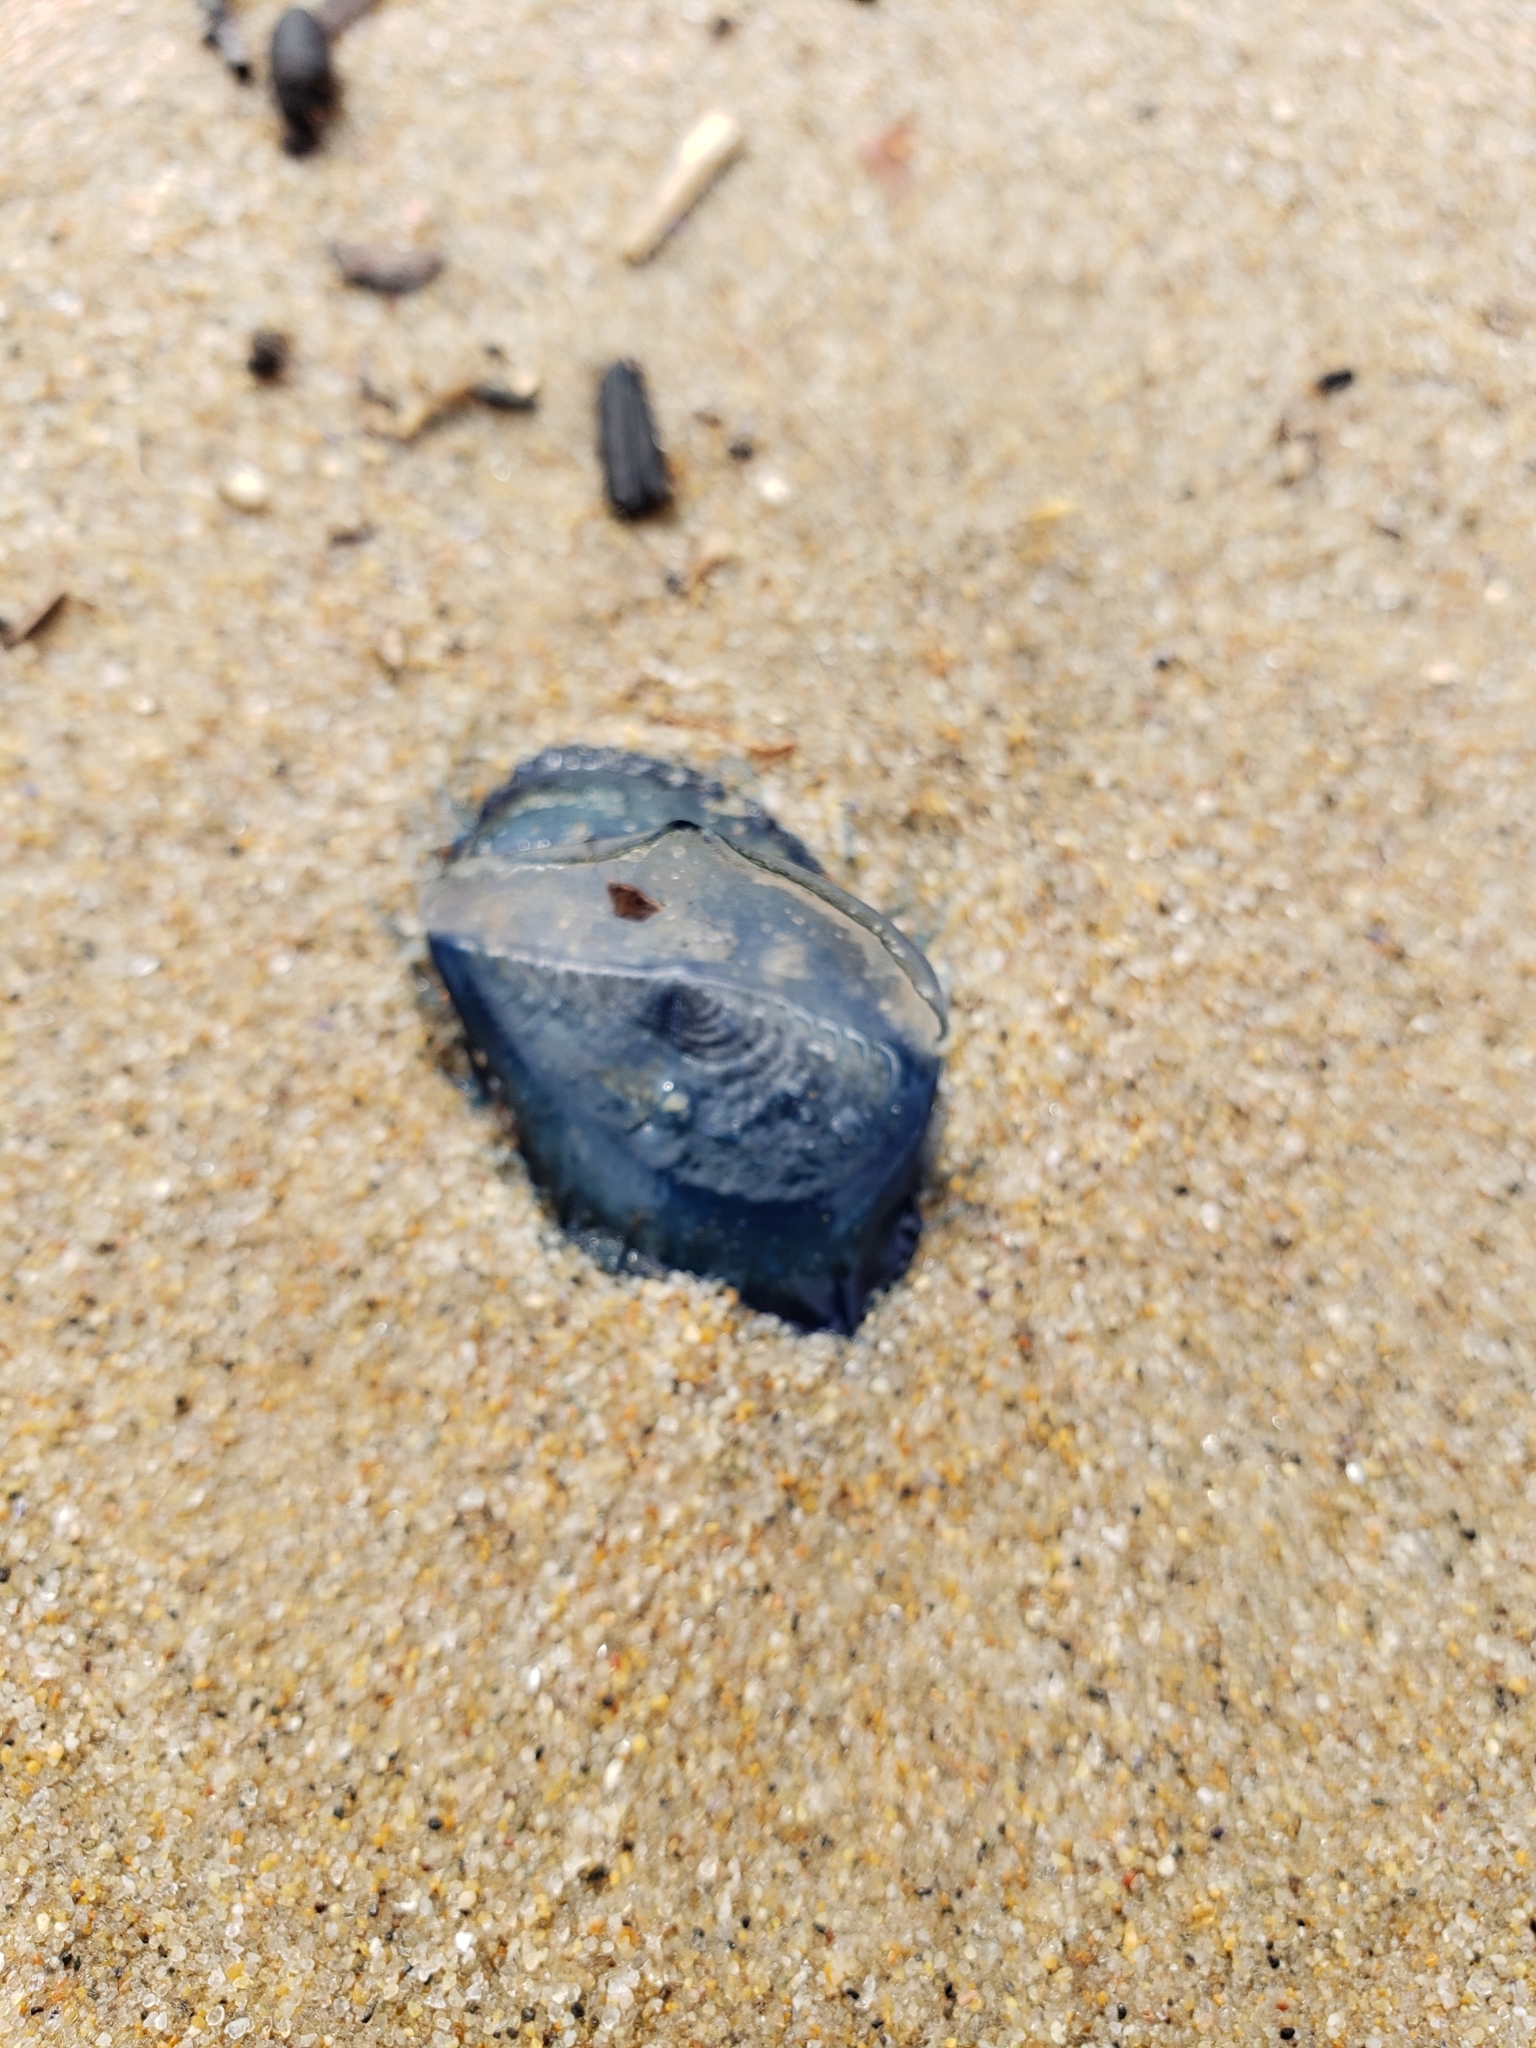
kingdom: Animalia
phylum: Cnidaria
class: Hydrozoa
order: Anthoathecata
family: Porpitidae
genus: Velella
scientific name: Velella velella
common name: By-the-wind-sailor
